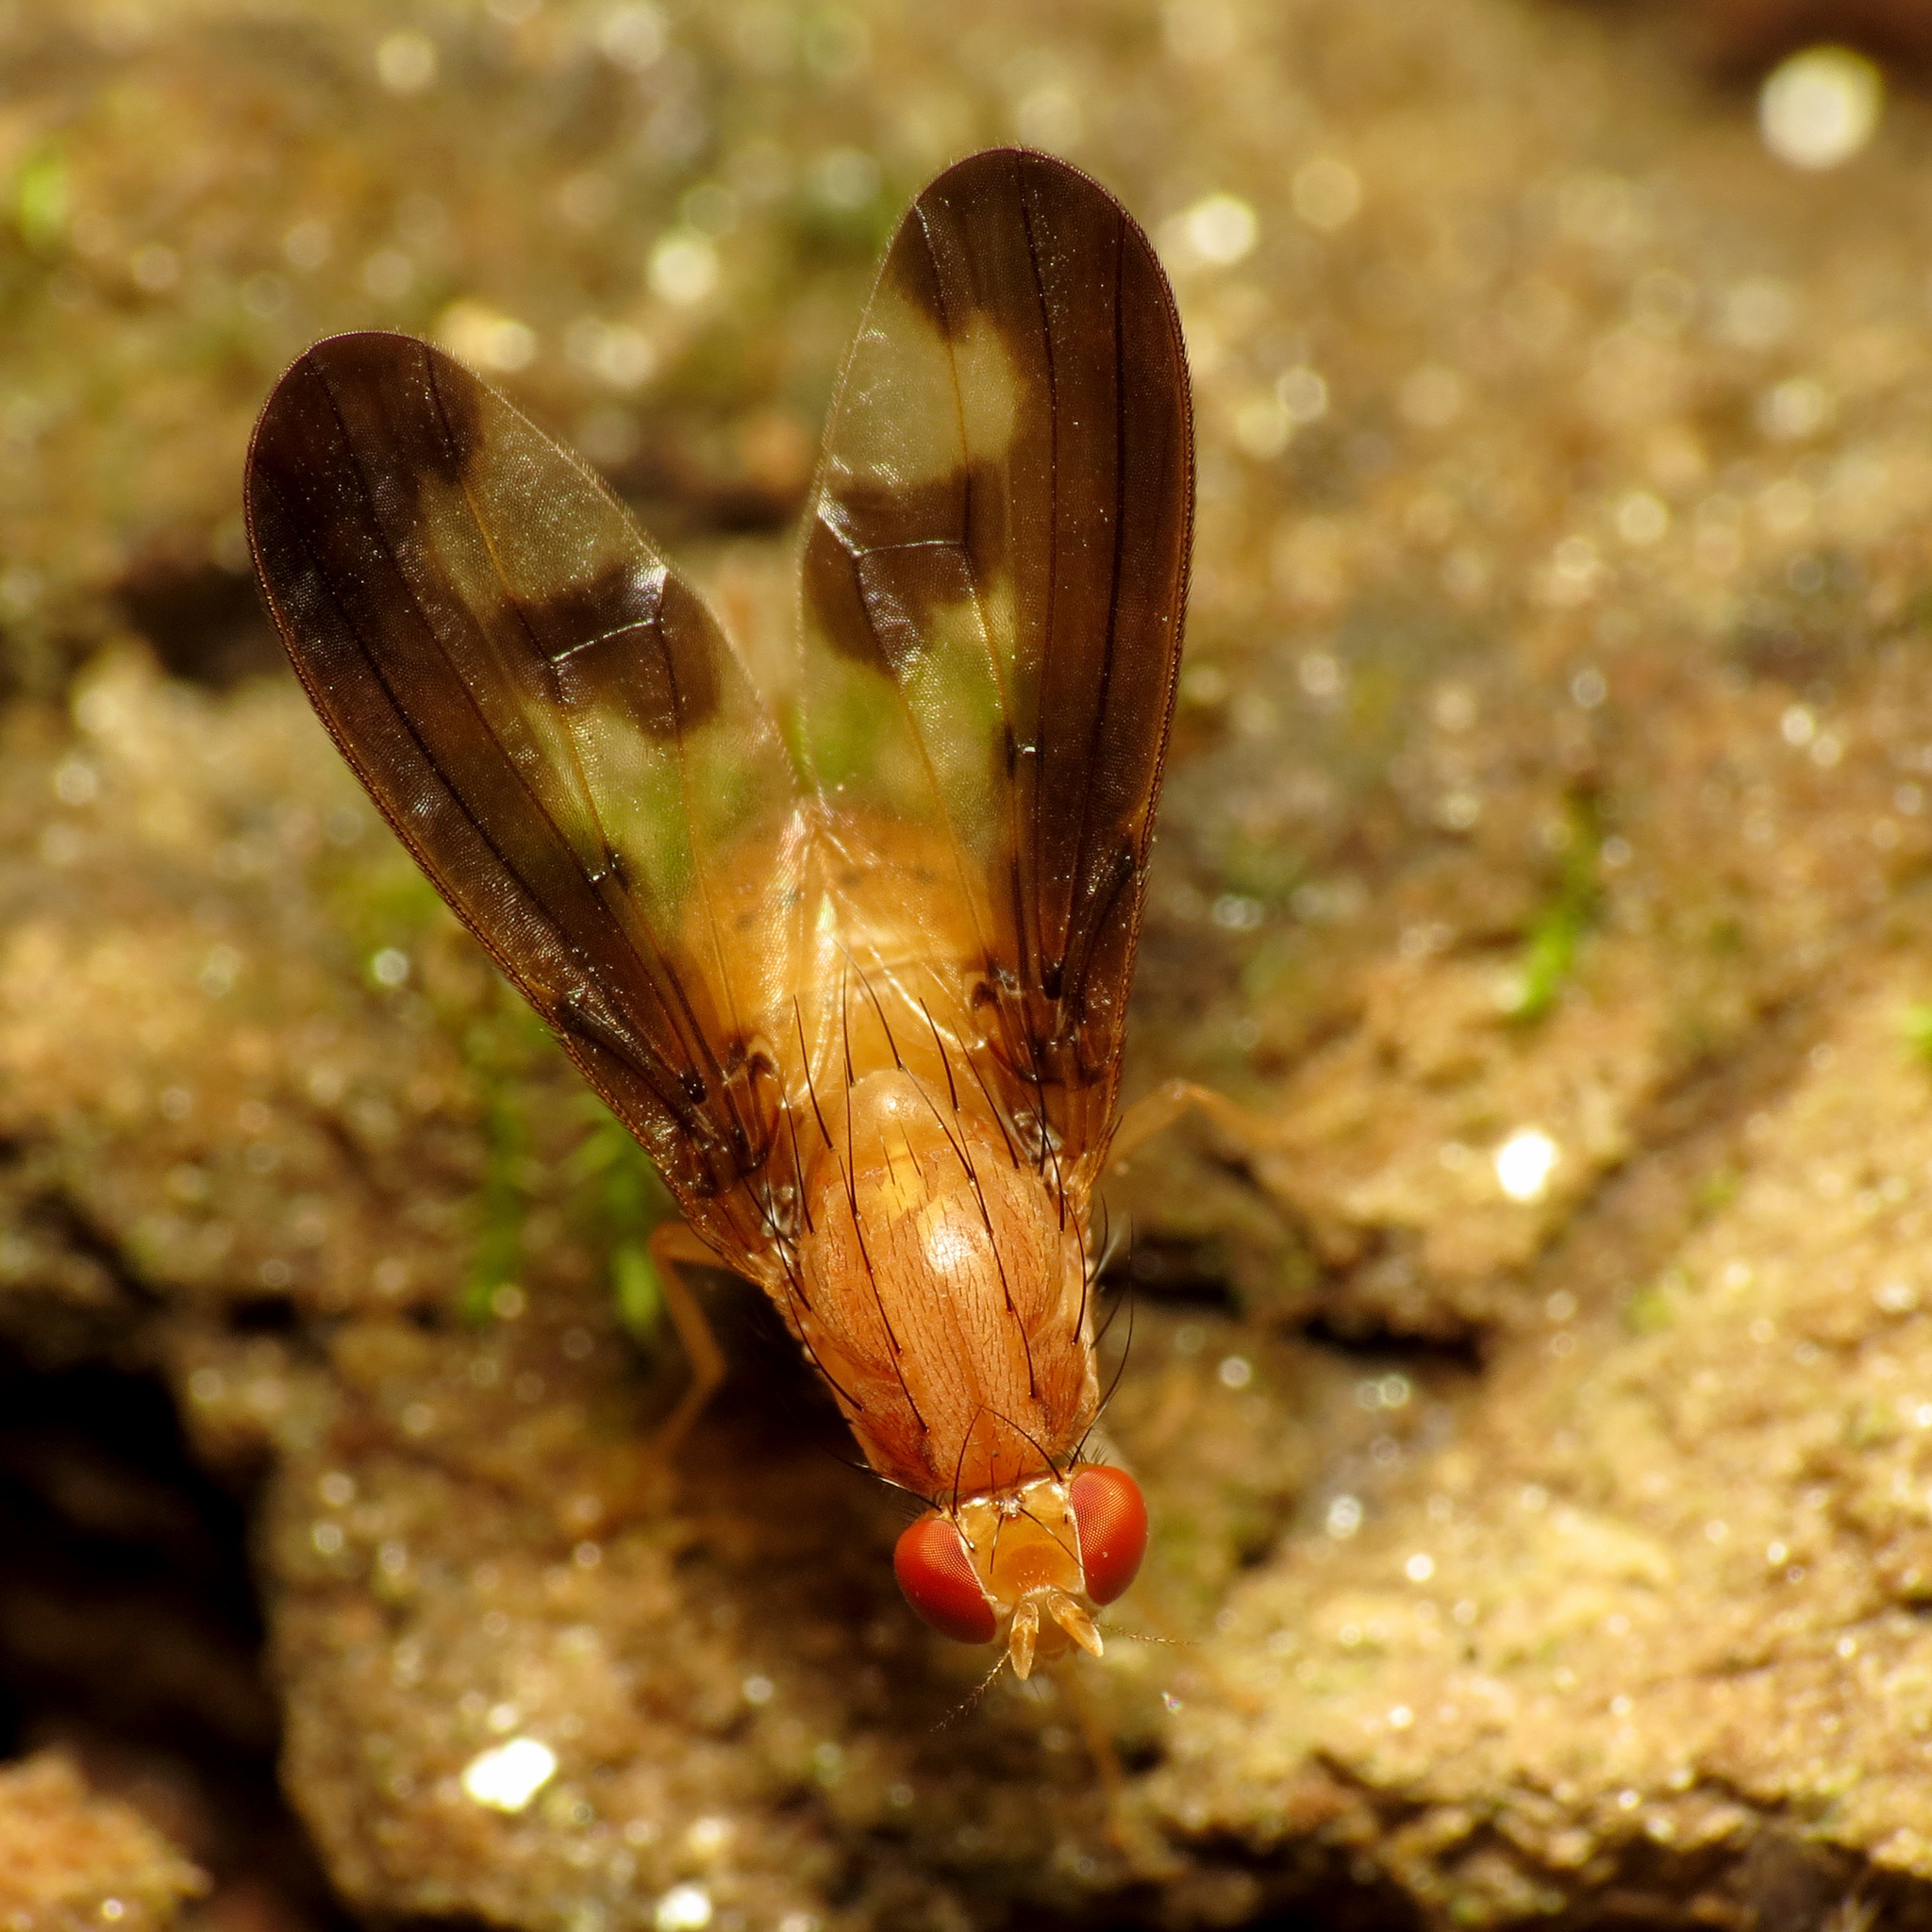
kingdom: Animalia
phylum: Arthropoda
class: Insecta
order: Diptera
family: Pallopteridae
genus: Toxonevra
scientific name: Toxonevra superba
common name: Antlered flutter fly
